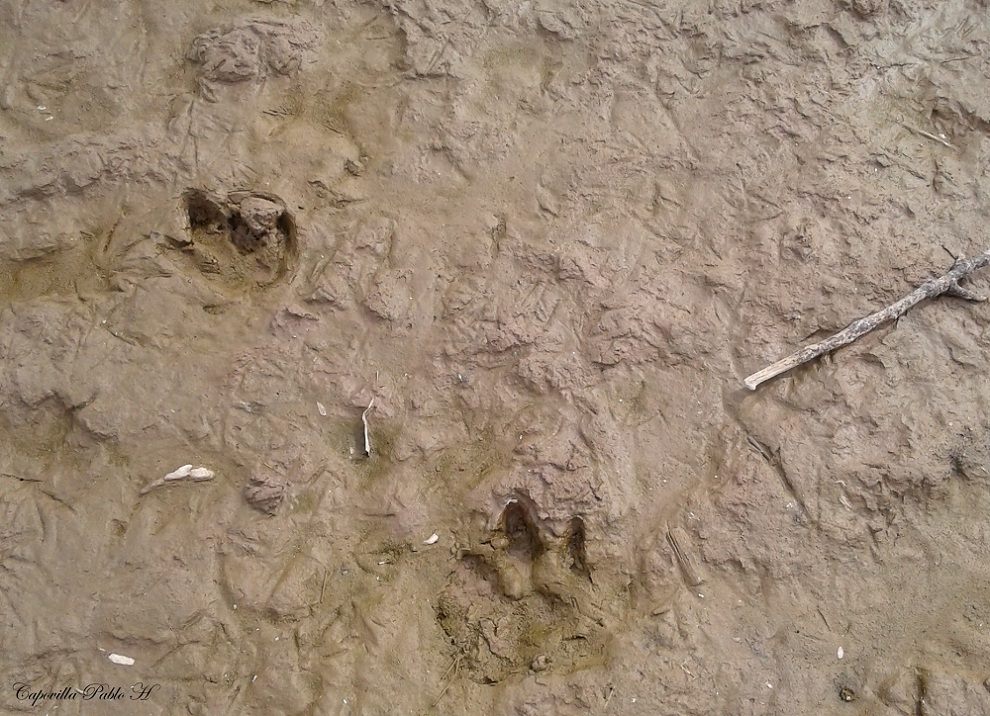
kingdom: Animalia
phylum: Chordata
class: Mammalia
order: Rodentia
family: Caviidae
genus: Hydrochoerus
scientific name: Hydrochoerus hydrochaeris
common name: Capybara
